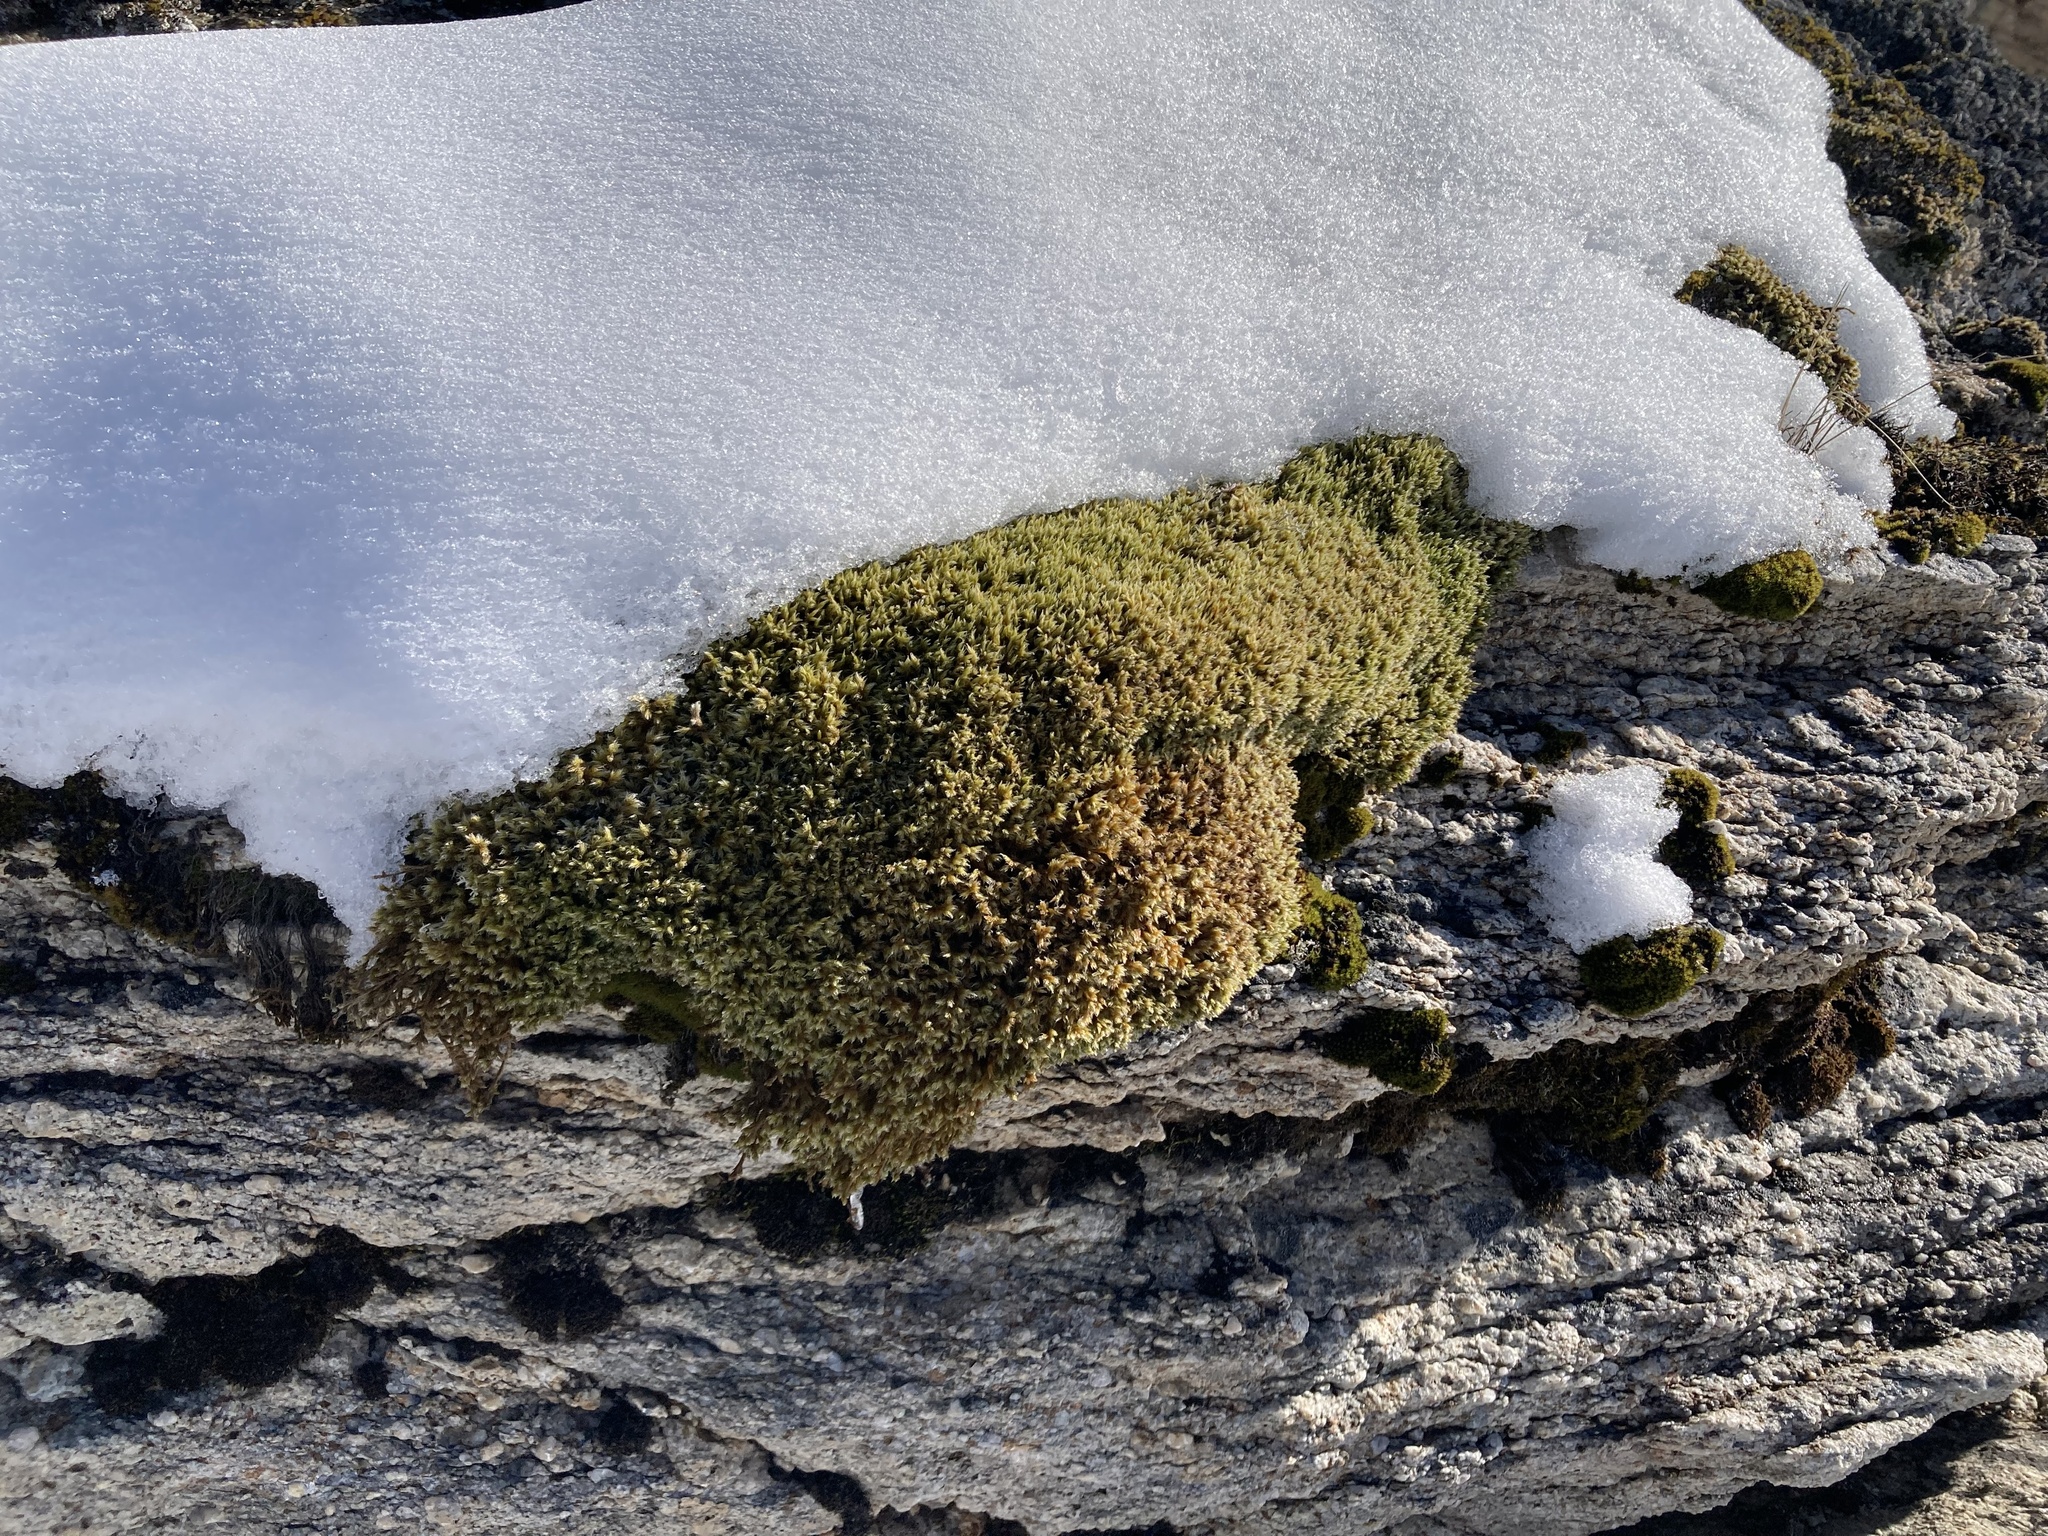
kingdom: Plantae
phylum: Bryophyta
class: Bryopsida
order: Grimmiales
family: Grimmiaceae
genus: Racomitrium
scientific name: Racomitrium lanuginosum
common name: Hoary rock moss
